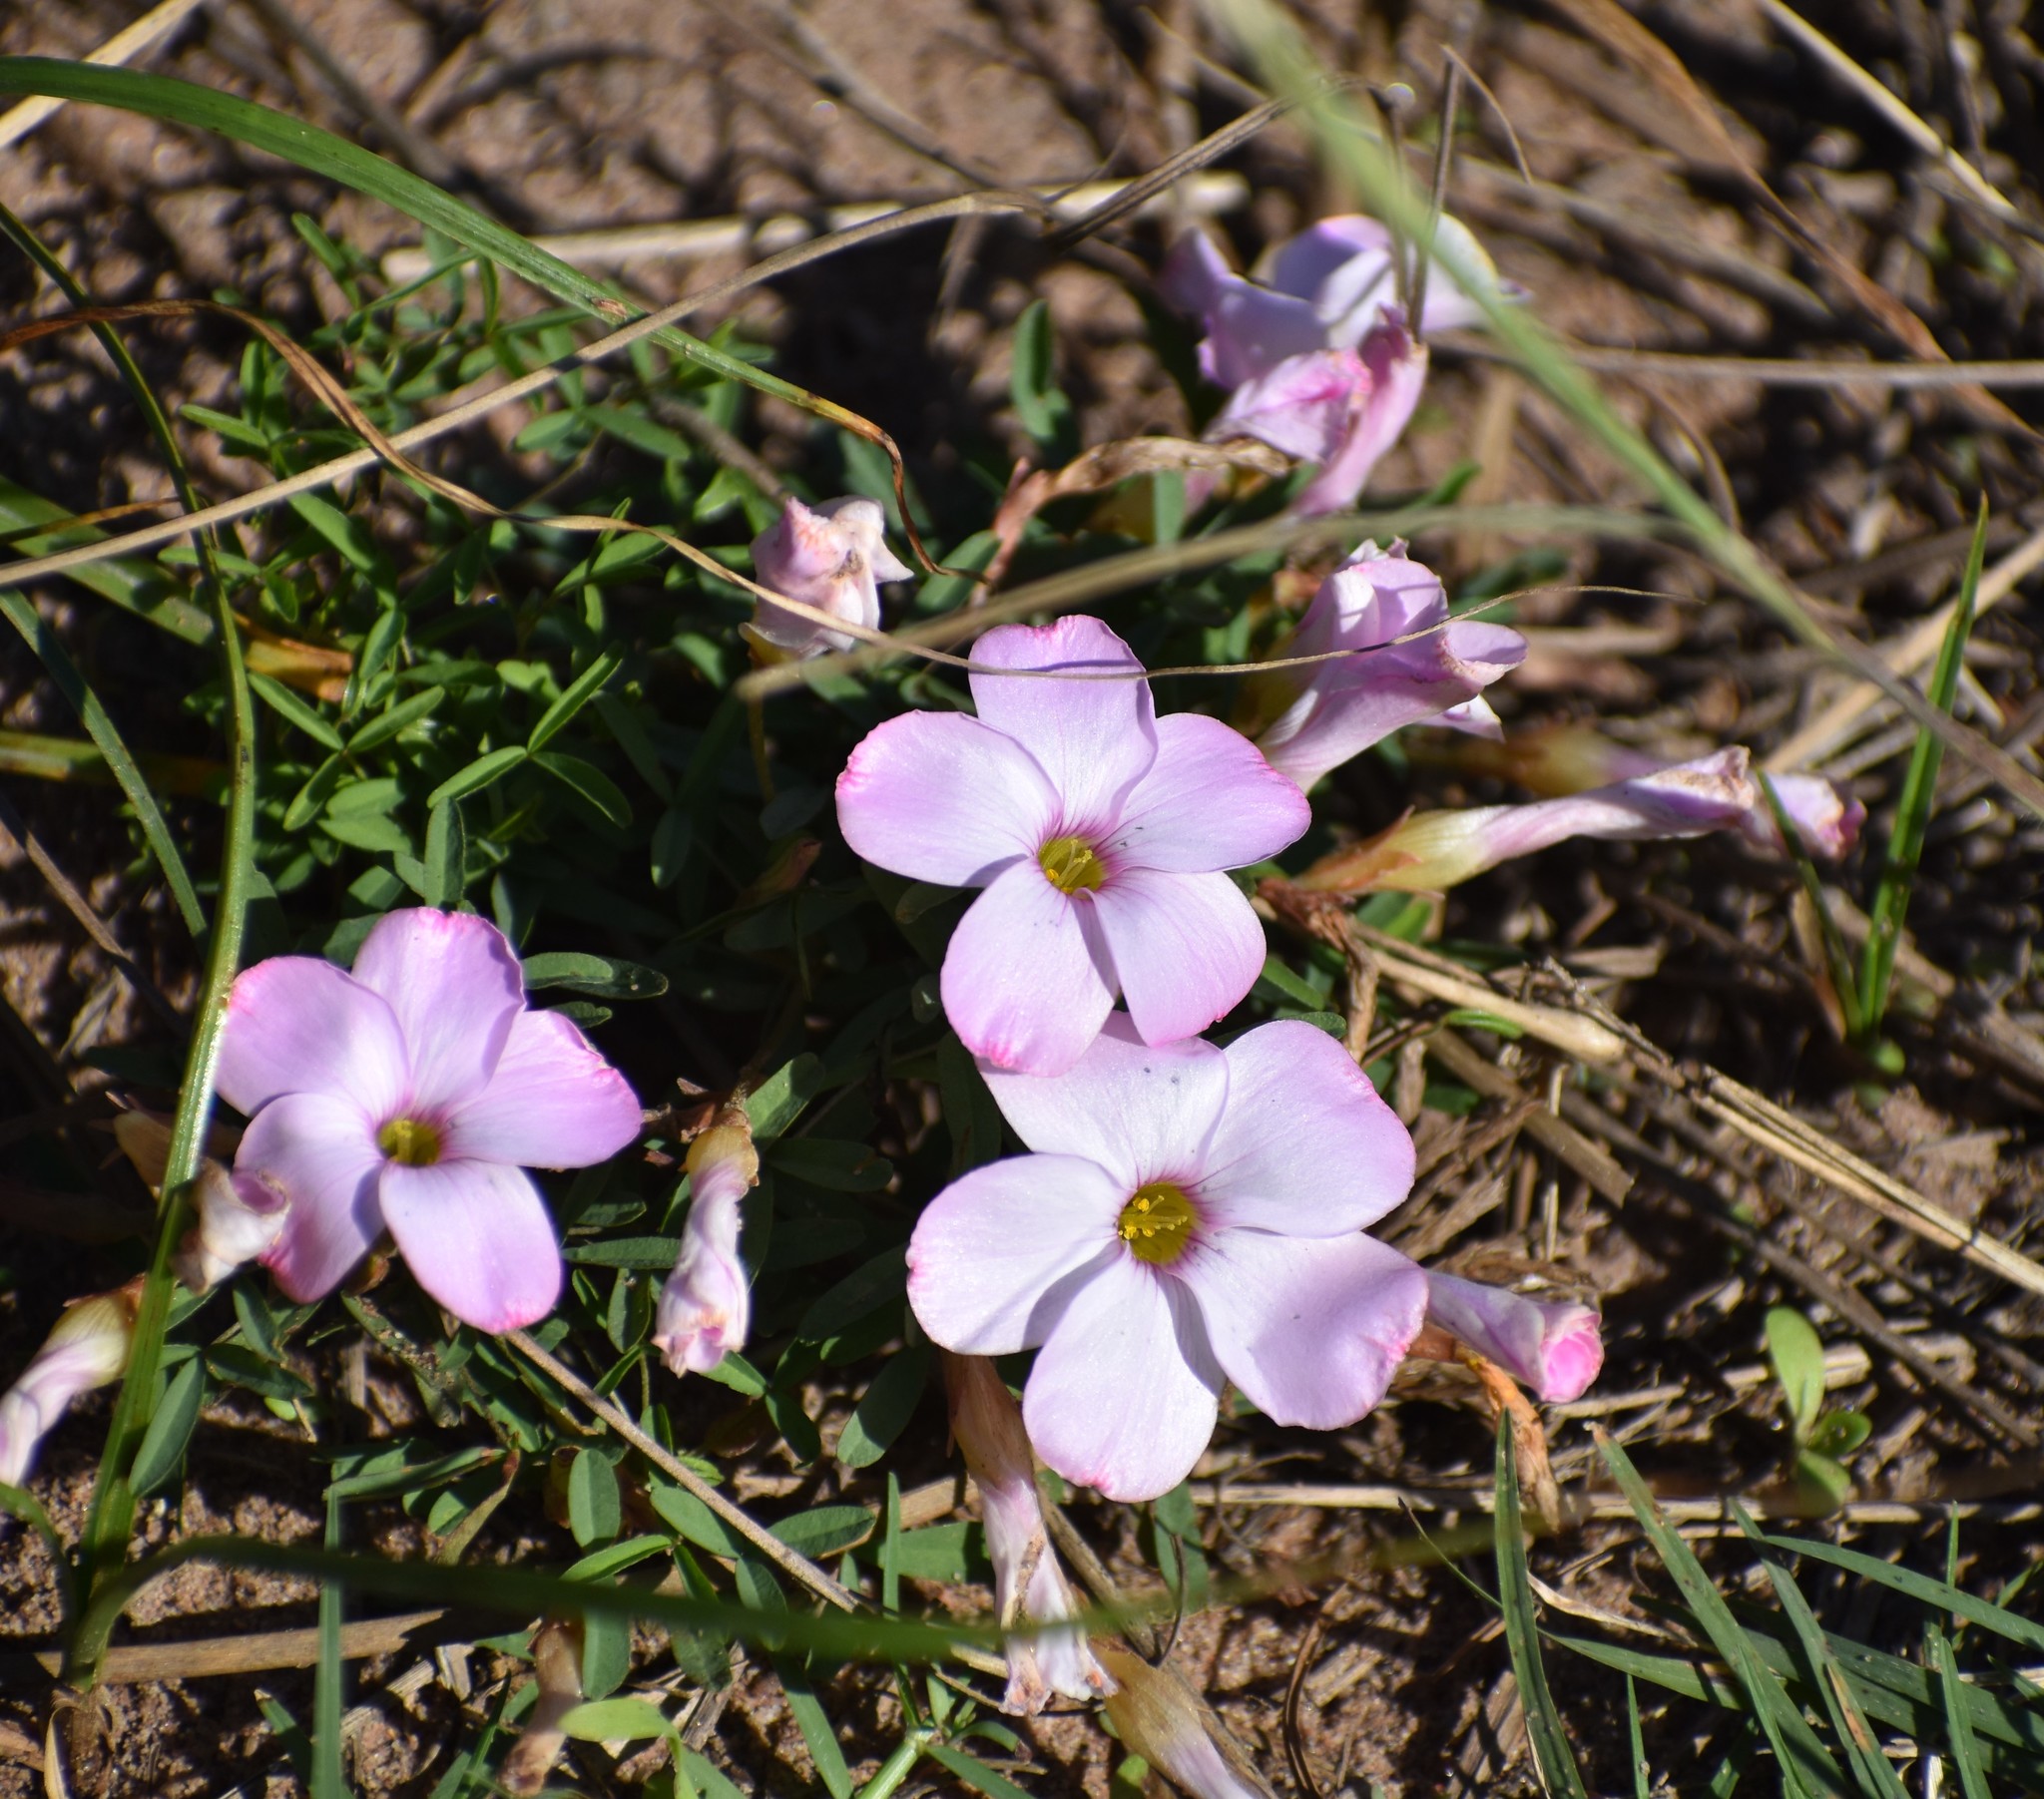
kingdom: Plantae
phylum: Tracheophyta
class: Magnoliopsida
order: Oxalidales
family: Oxalidaceae
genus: Oxalis
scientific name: Oxalis ciliaris
